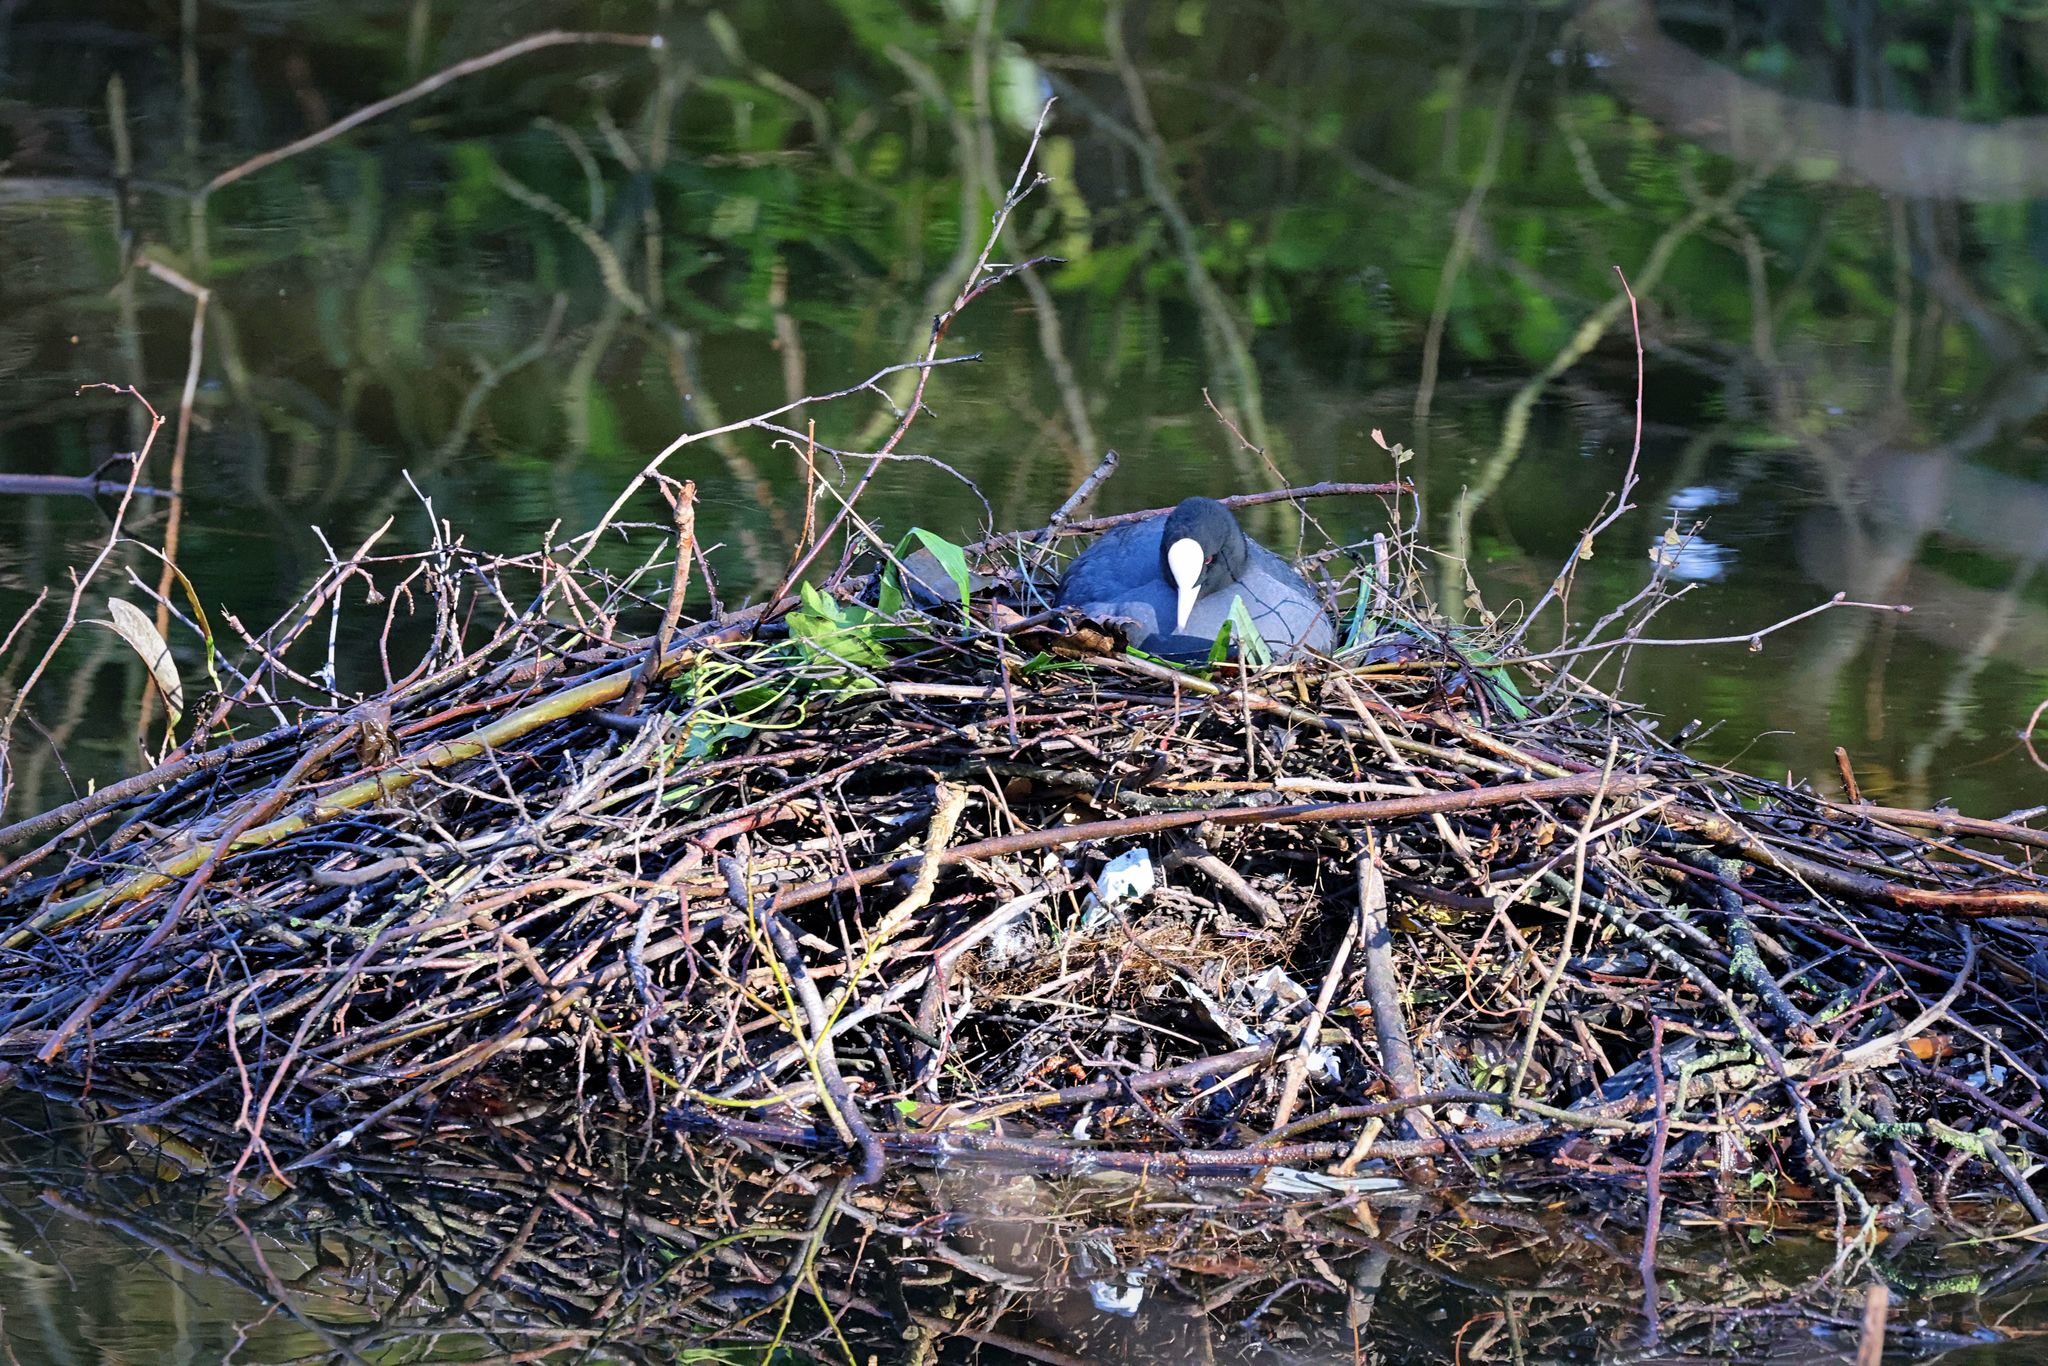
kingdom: Animalia
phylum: Chordata
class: Aves
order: Gruiformes
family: Rallidae
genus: Fulica
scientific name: Fulica atra
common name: Eurasian coot
